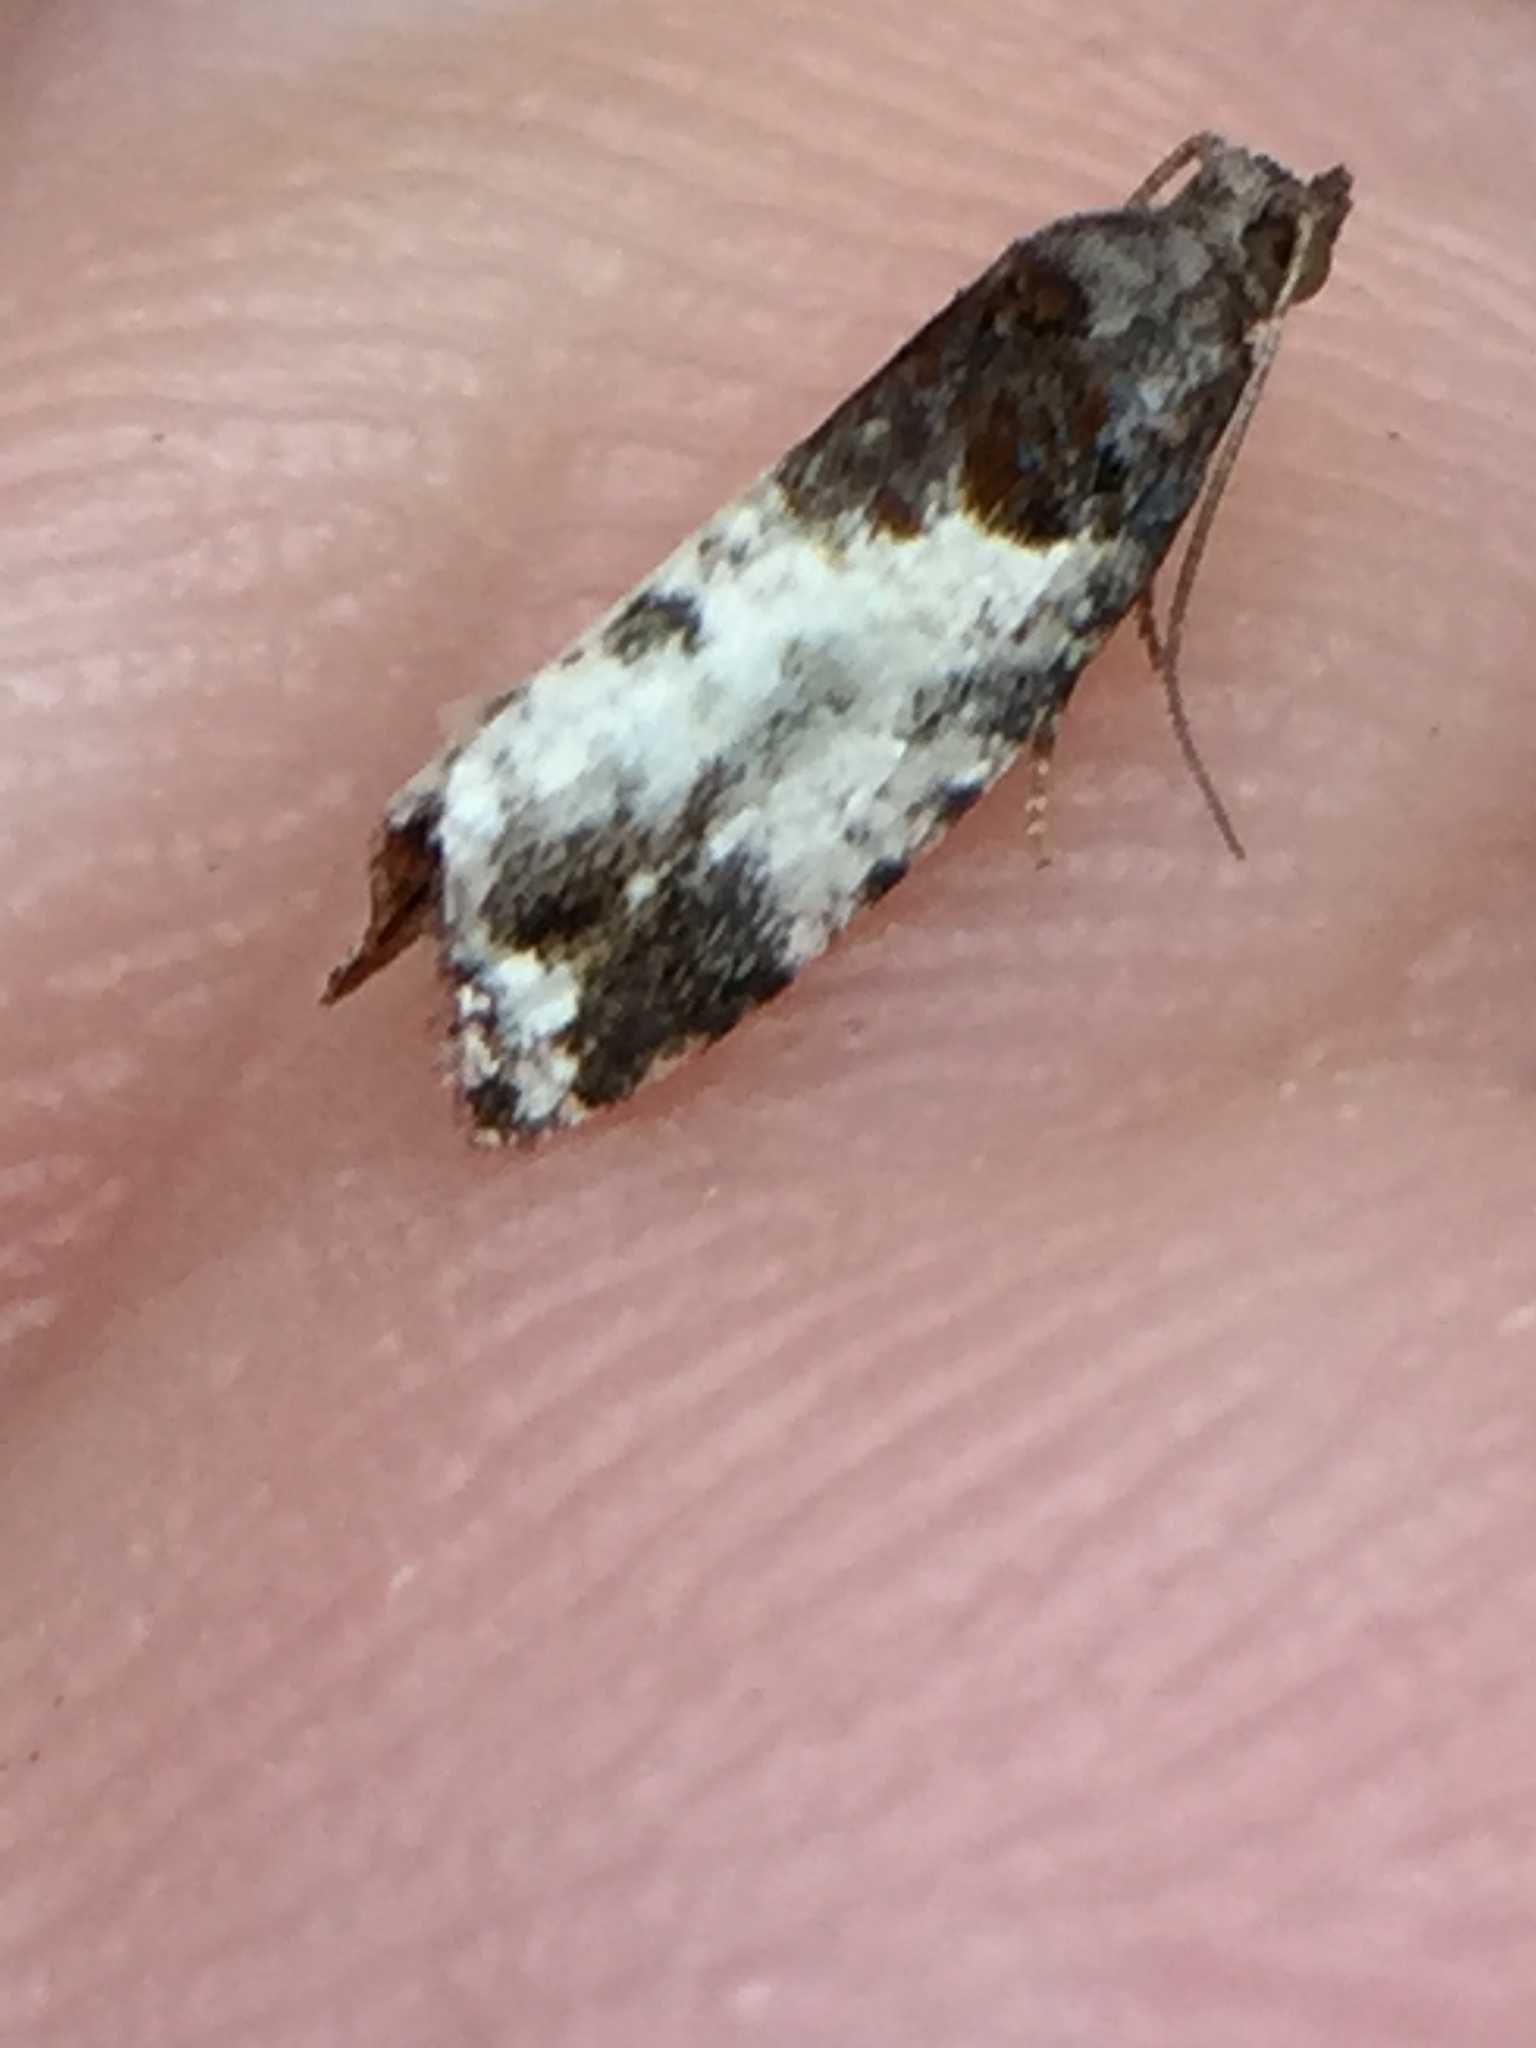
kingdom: Animalia
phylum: Arthropoda
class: Insecta
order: Lepidoptera
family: Tortricidae
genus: Pyrgotis
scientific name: Pyrgotis calligypsa
